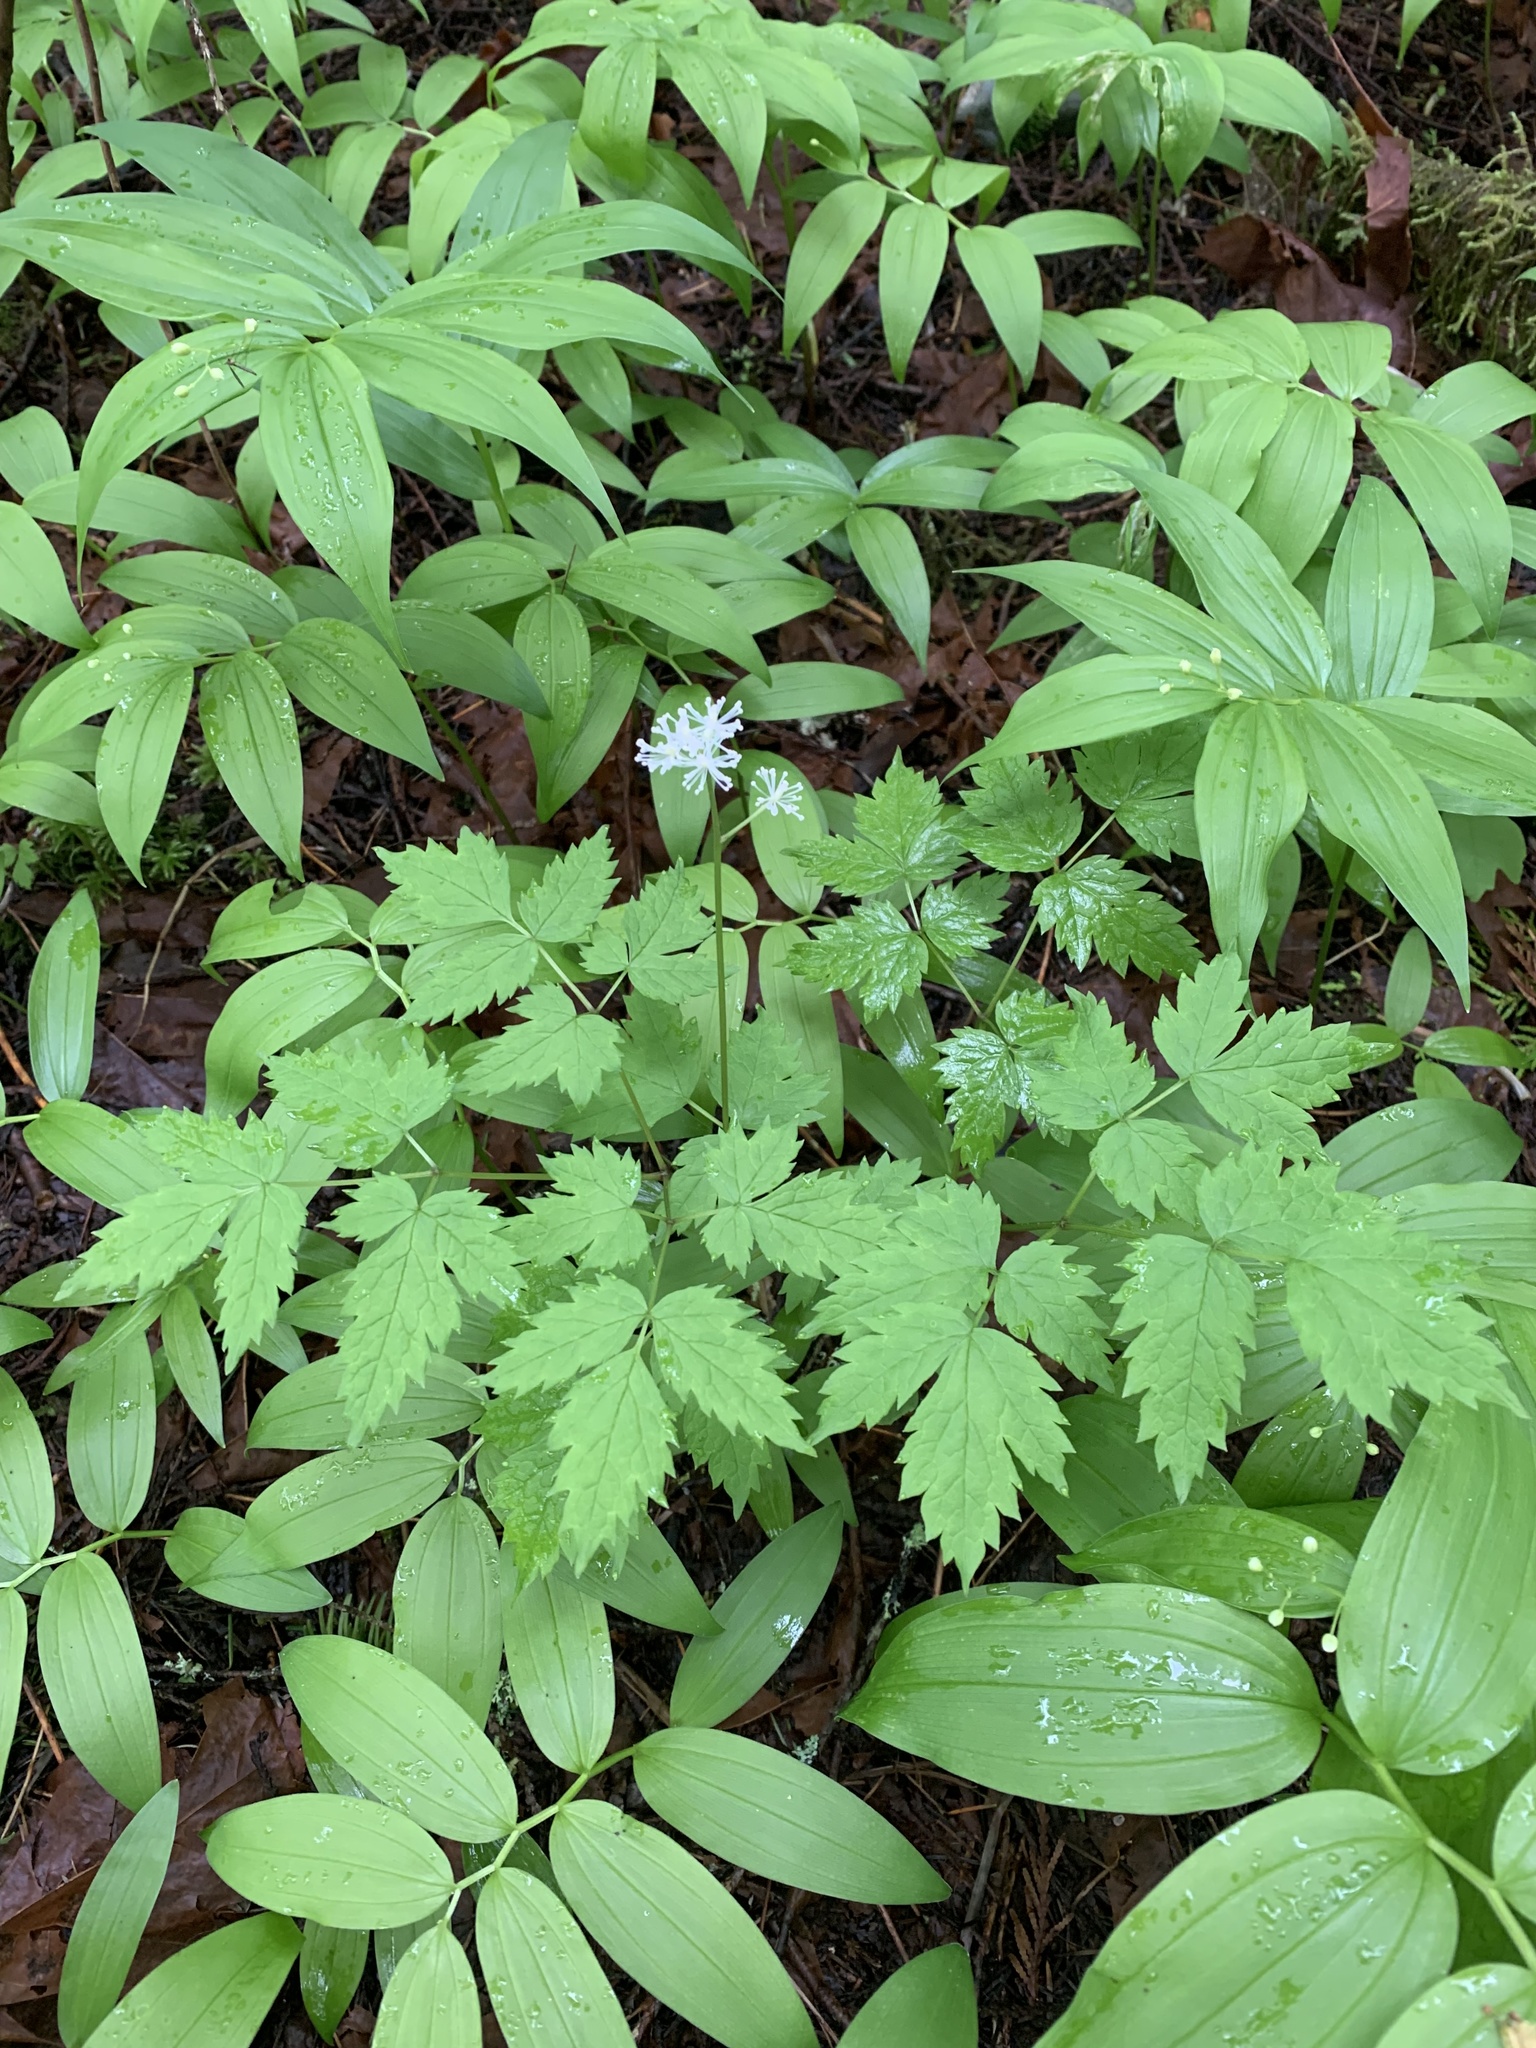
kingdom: Plantae
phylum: Tracheophyta
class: Magnoliopsida
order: Ranunculales
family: Ranunculaceae
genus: Actaea
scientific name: Actaea rubra
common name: Red baneberry
